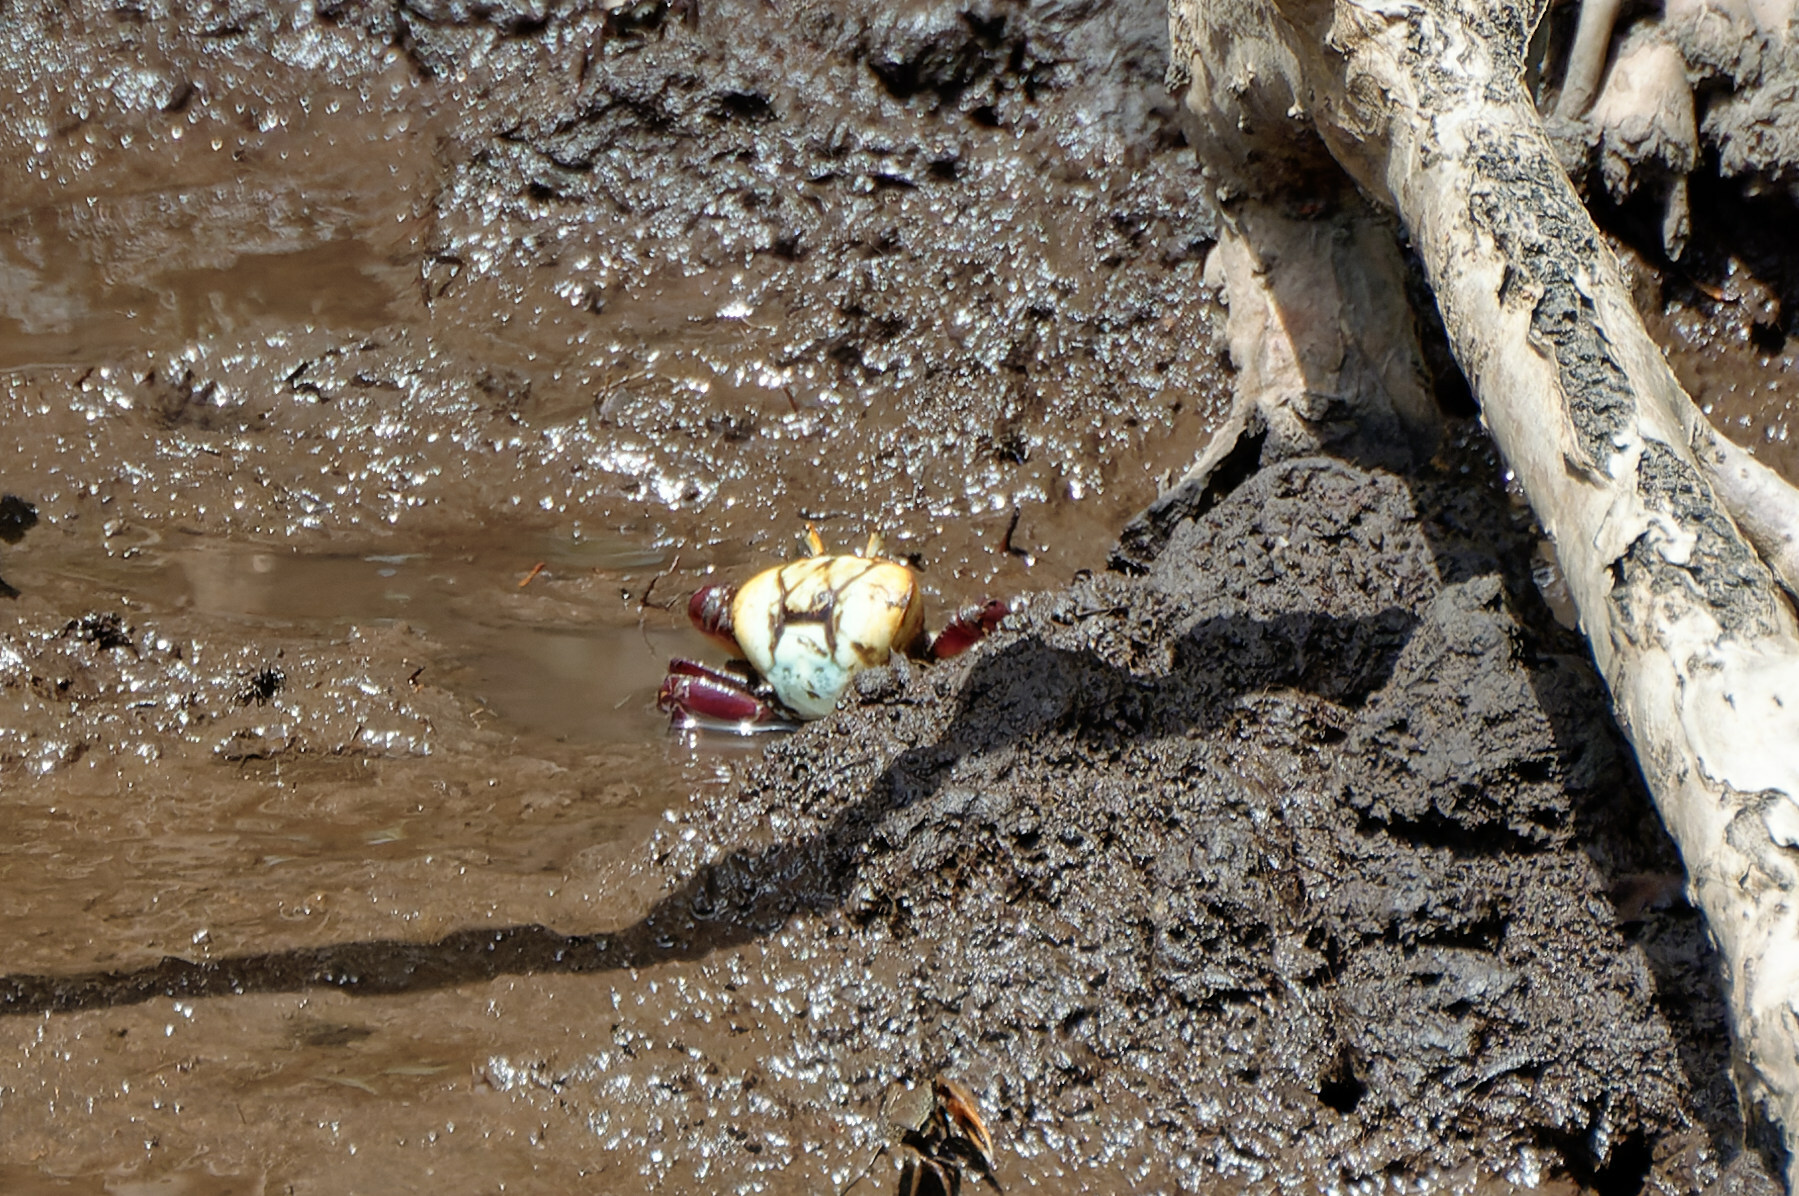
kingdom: Animalia
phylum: Arthropoda
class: Malacostraca
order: Decapoda
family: Ocypodidae
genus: Ucides
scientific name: Ucides cordatus
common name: Swamp ghost crab
